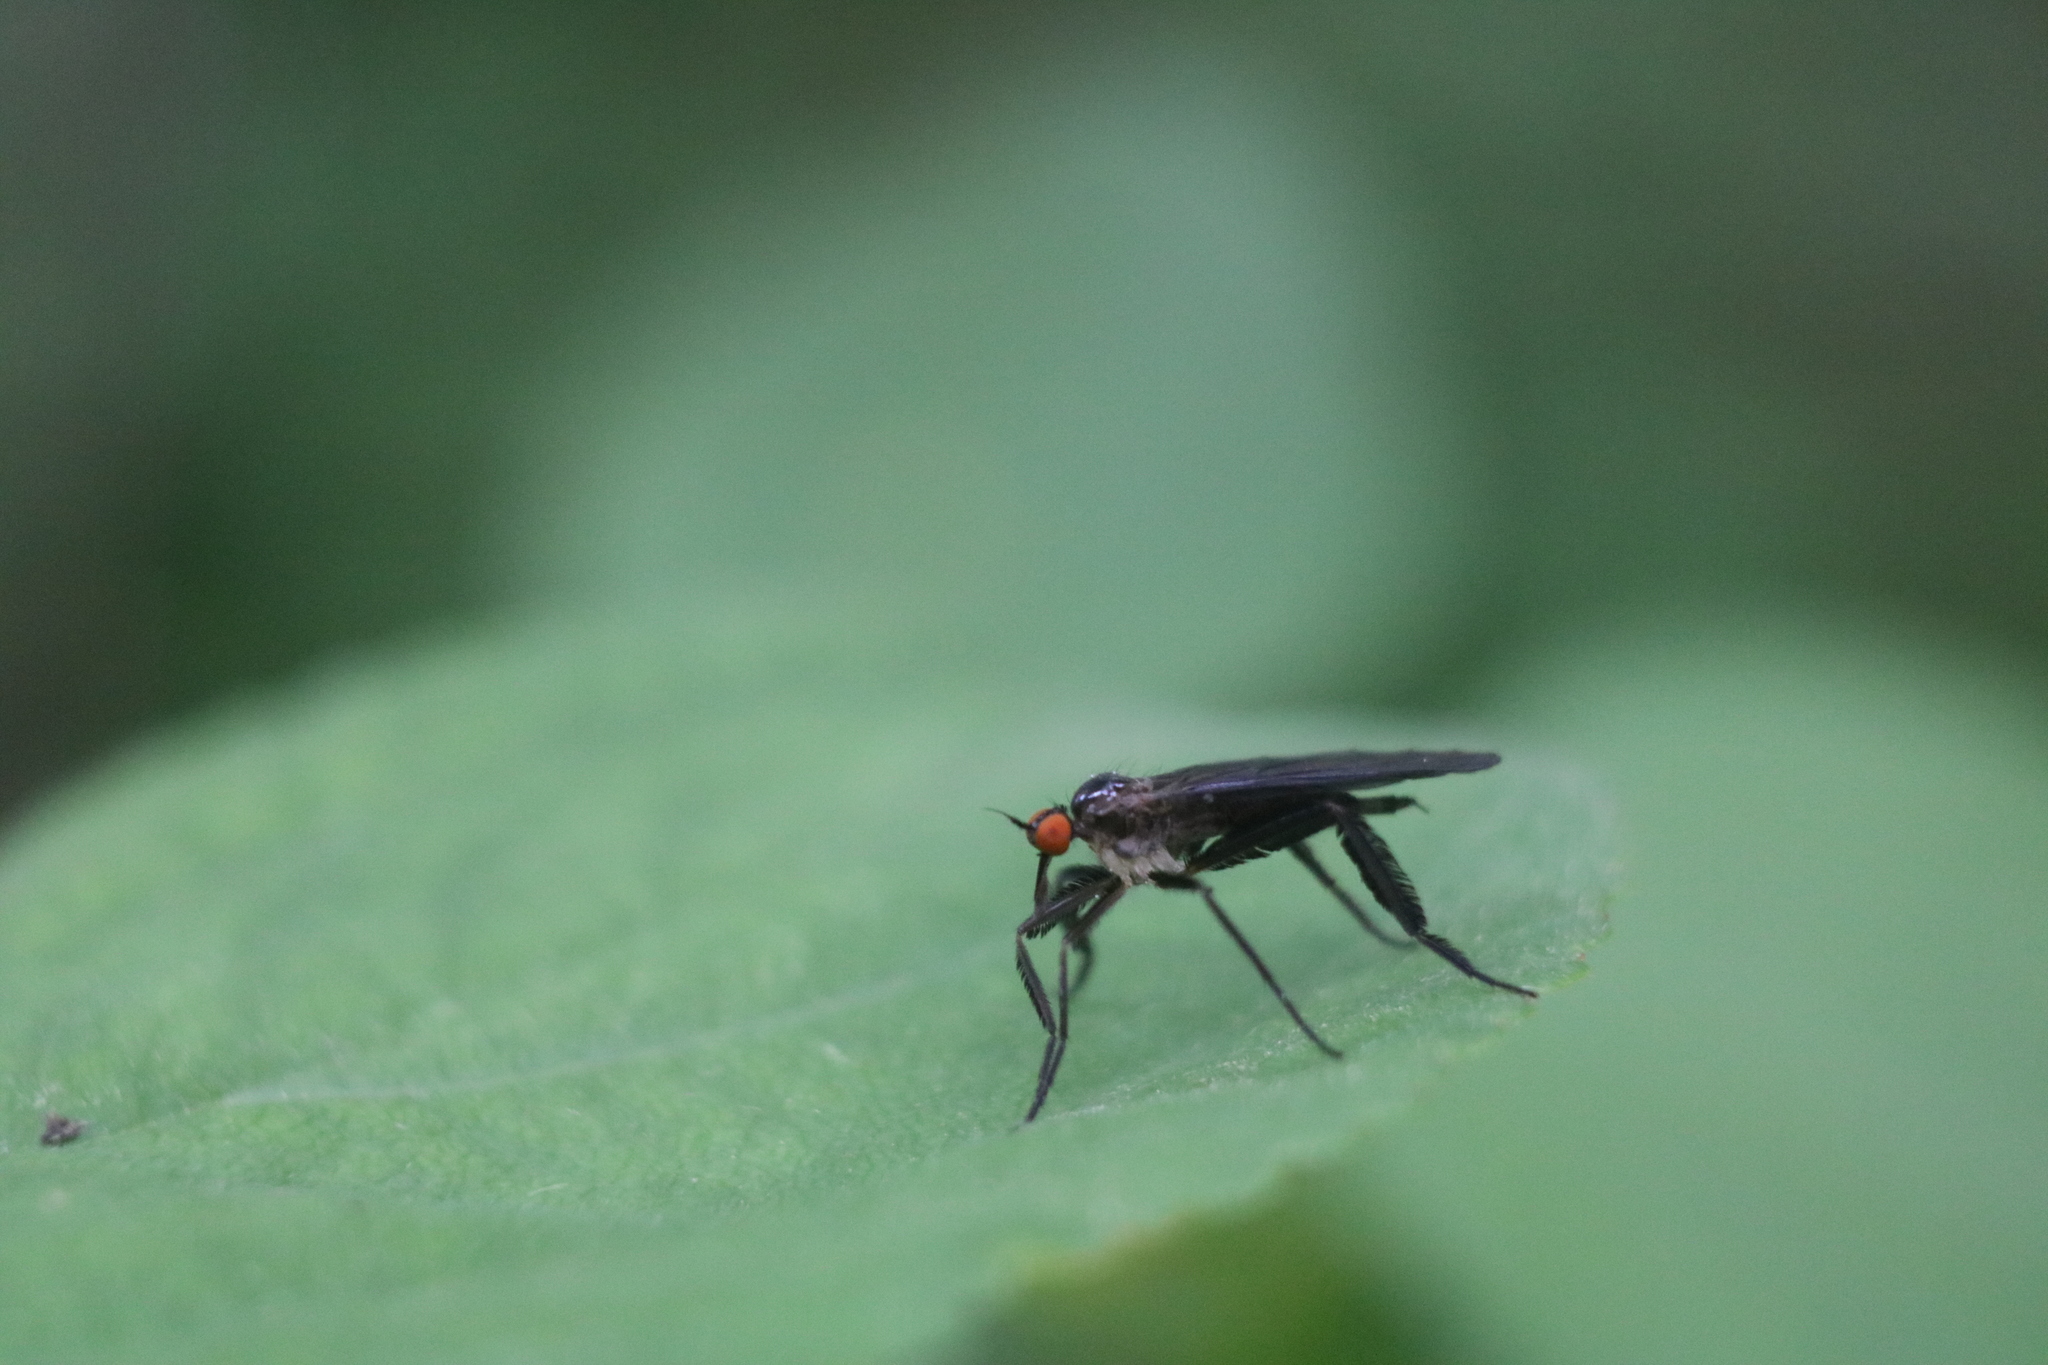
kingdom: Animalia
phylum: Arthropoda
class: Insecta
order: Diptera
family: Empididae
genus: Rhamphomyia
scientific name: Rhamphomyia longicauda
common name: Long-tailed dance fly
